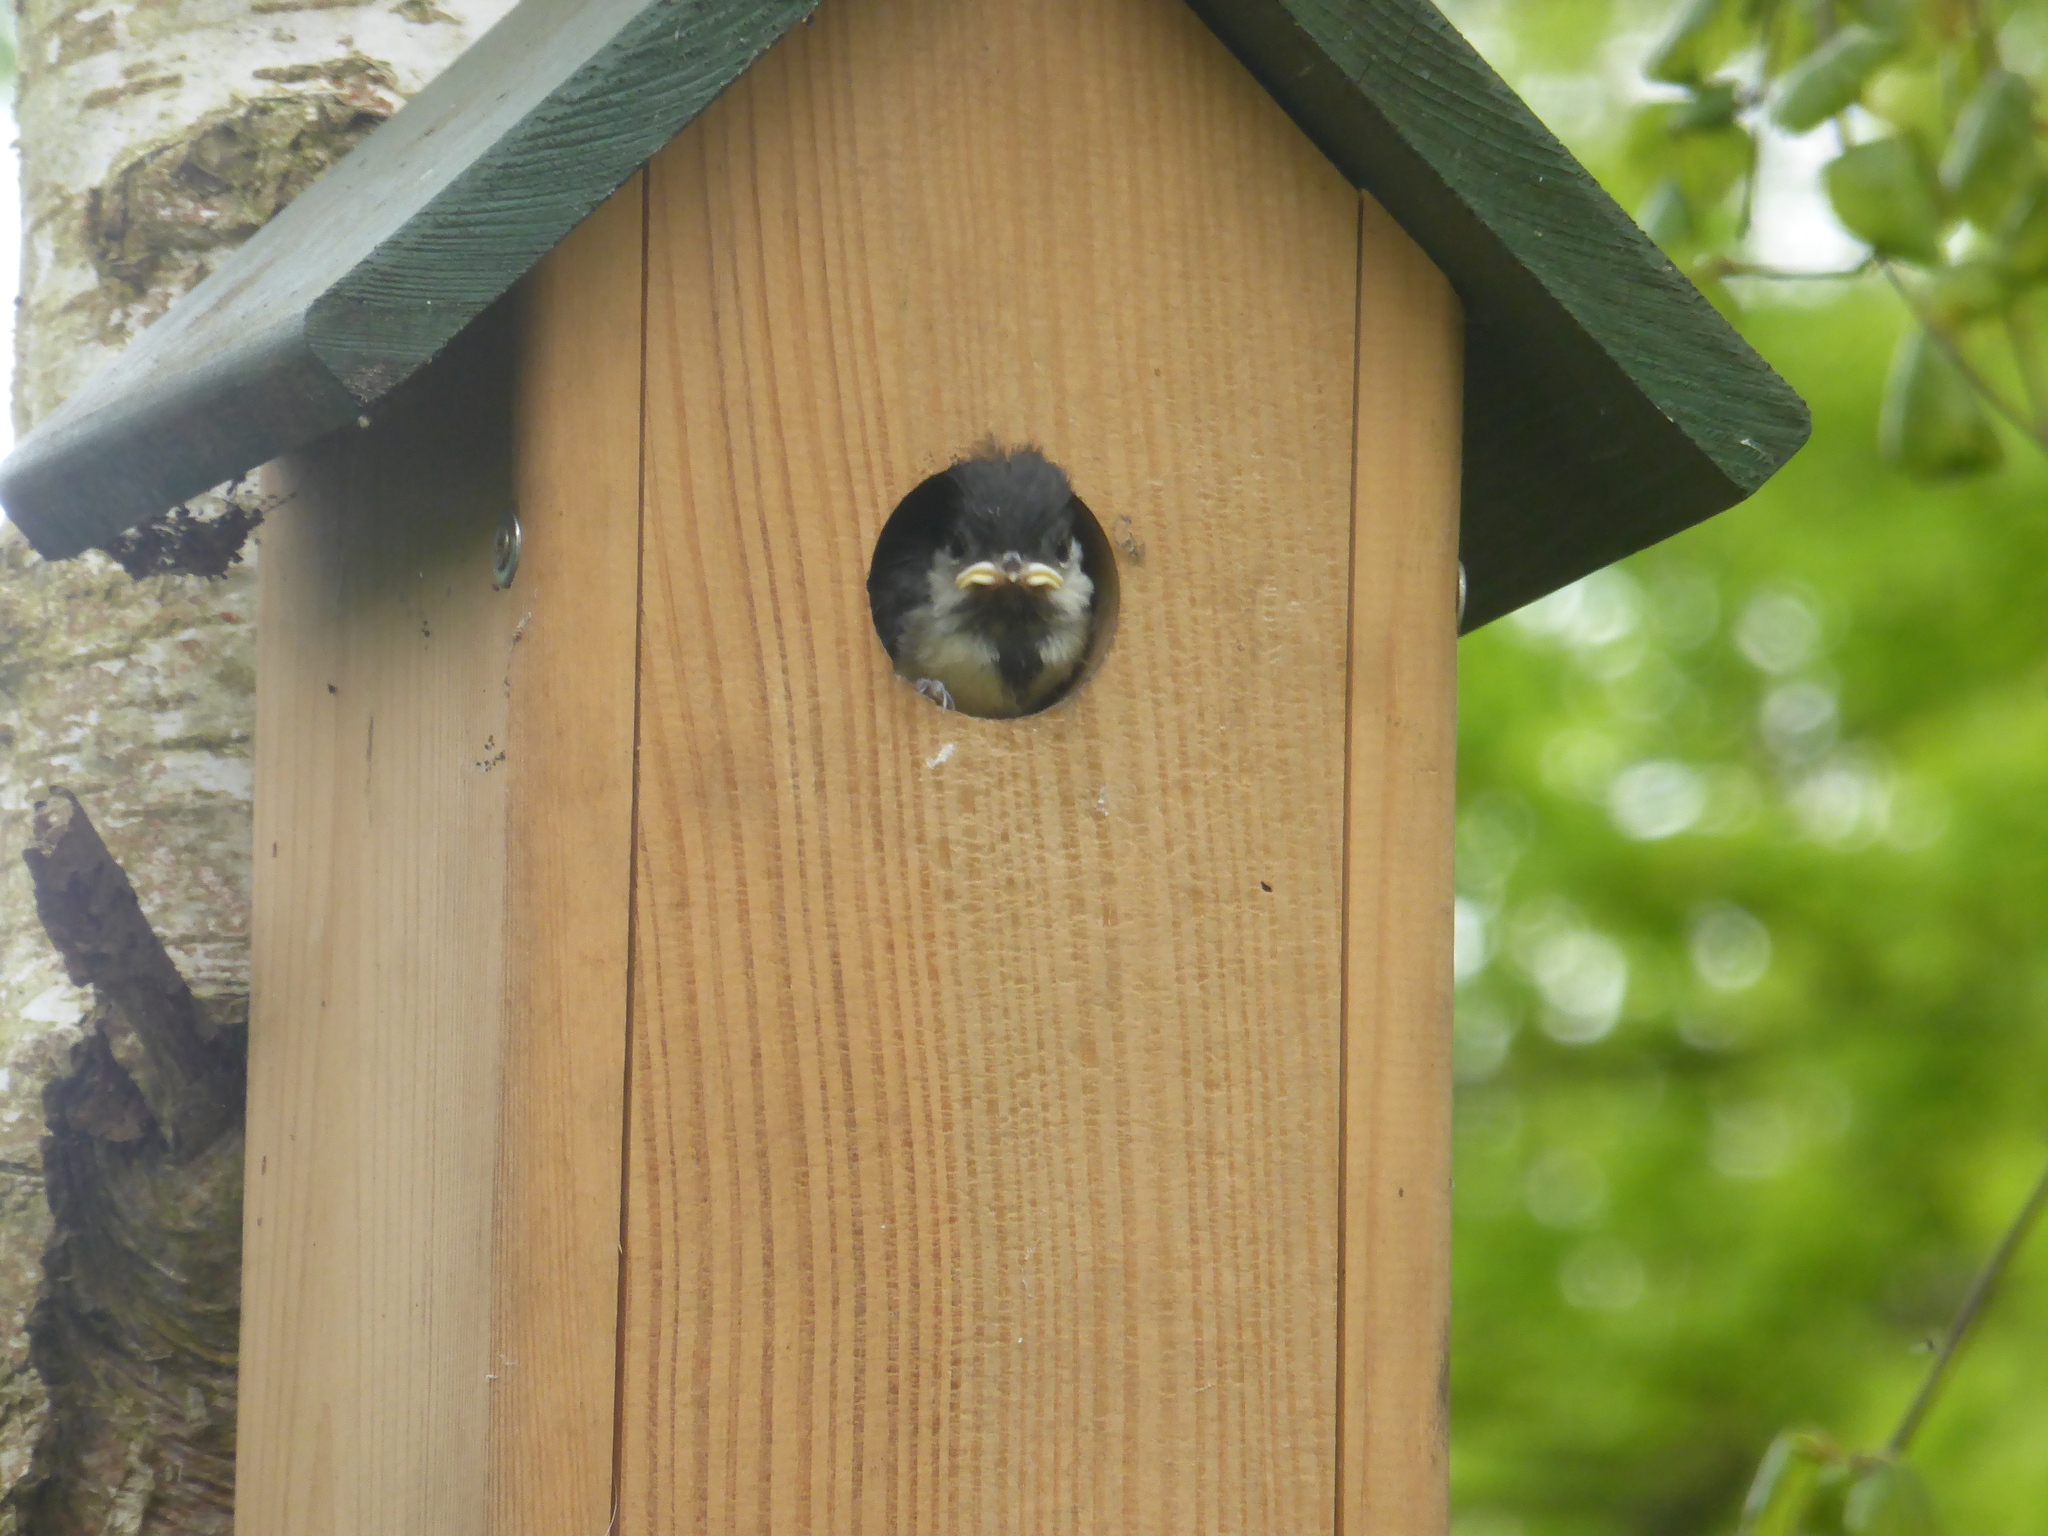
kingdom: Animalia
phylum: Chordata
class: Aves
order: Passeriformes
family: Paridae
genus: Parus
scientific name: Parus major
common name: Great tit
